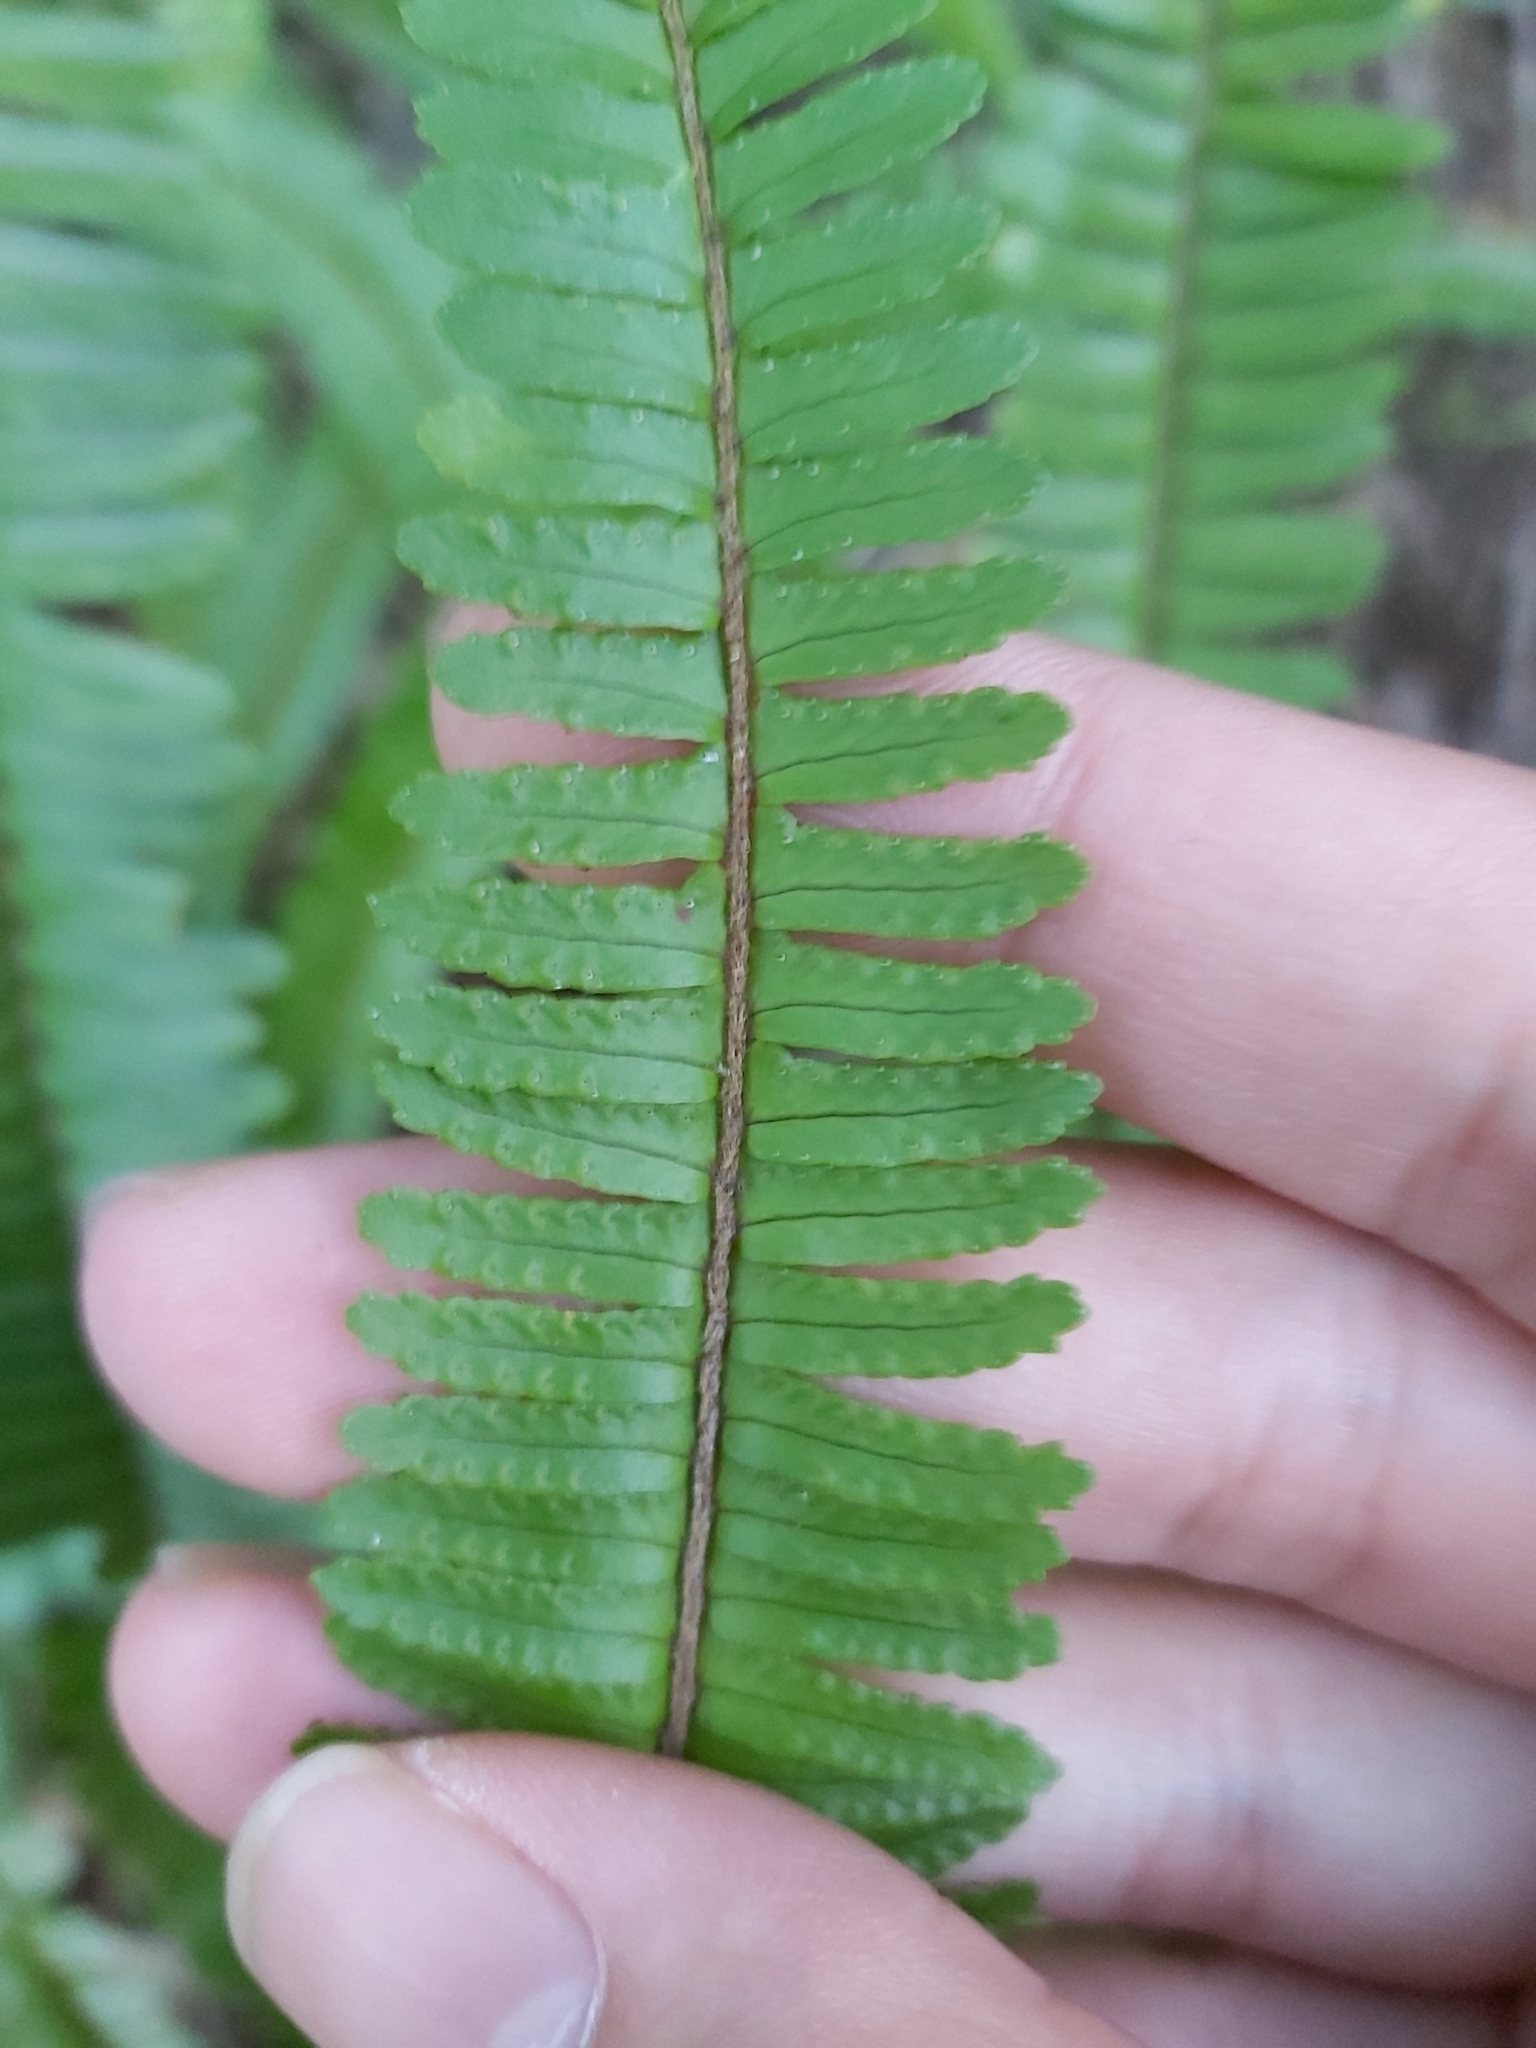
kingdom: Plantae
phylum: Tracheophyta
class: Polypodiopsida
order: Polypodiales
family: Nephrolepidaceae
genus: Nephrolepis
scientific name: Nephrolepis cordifolia
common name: Narrow swordfern
